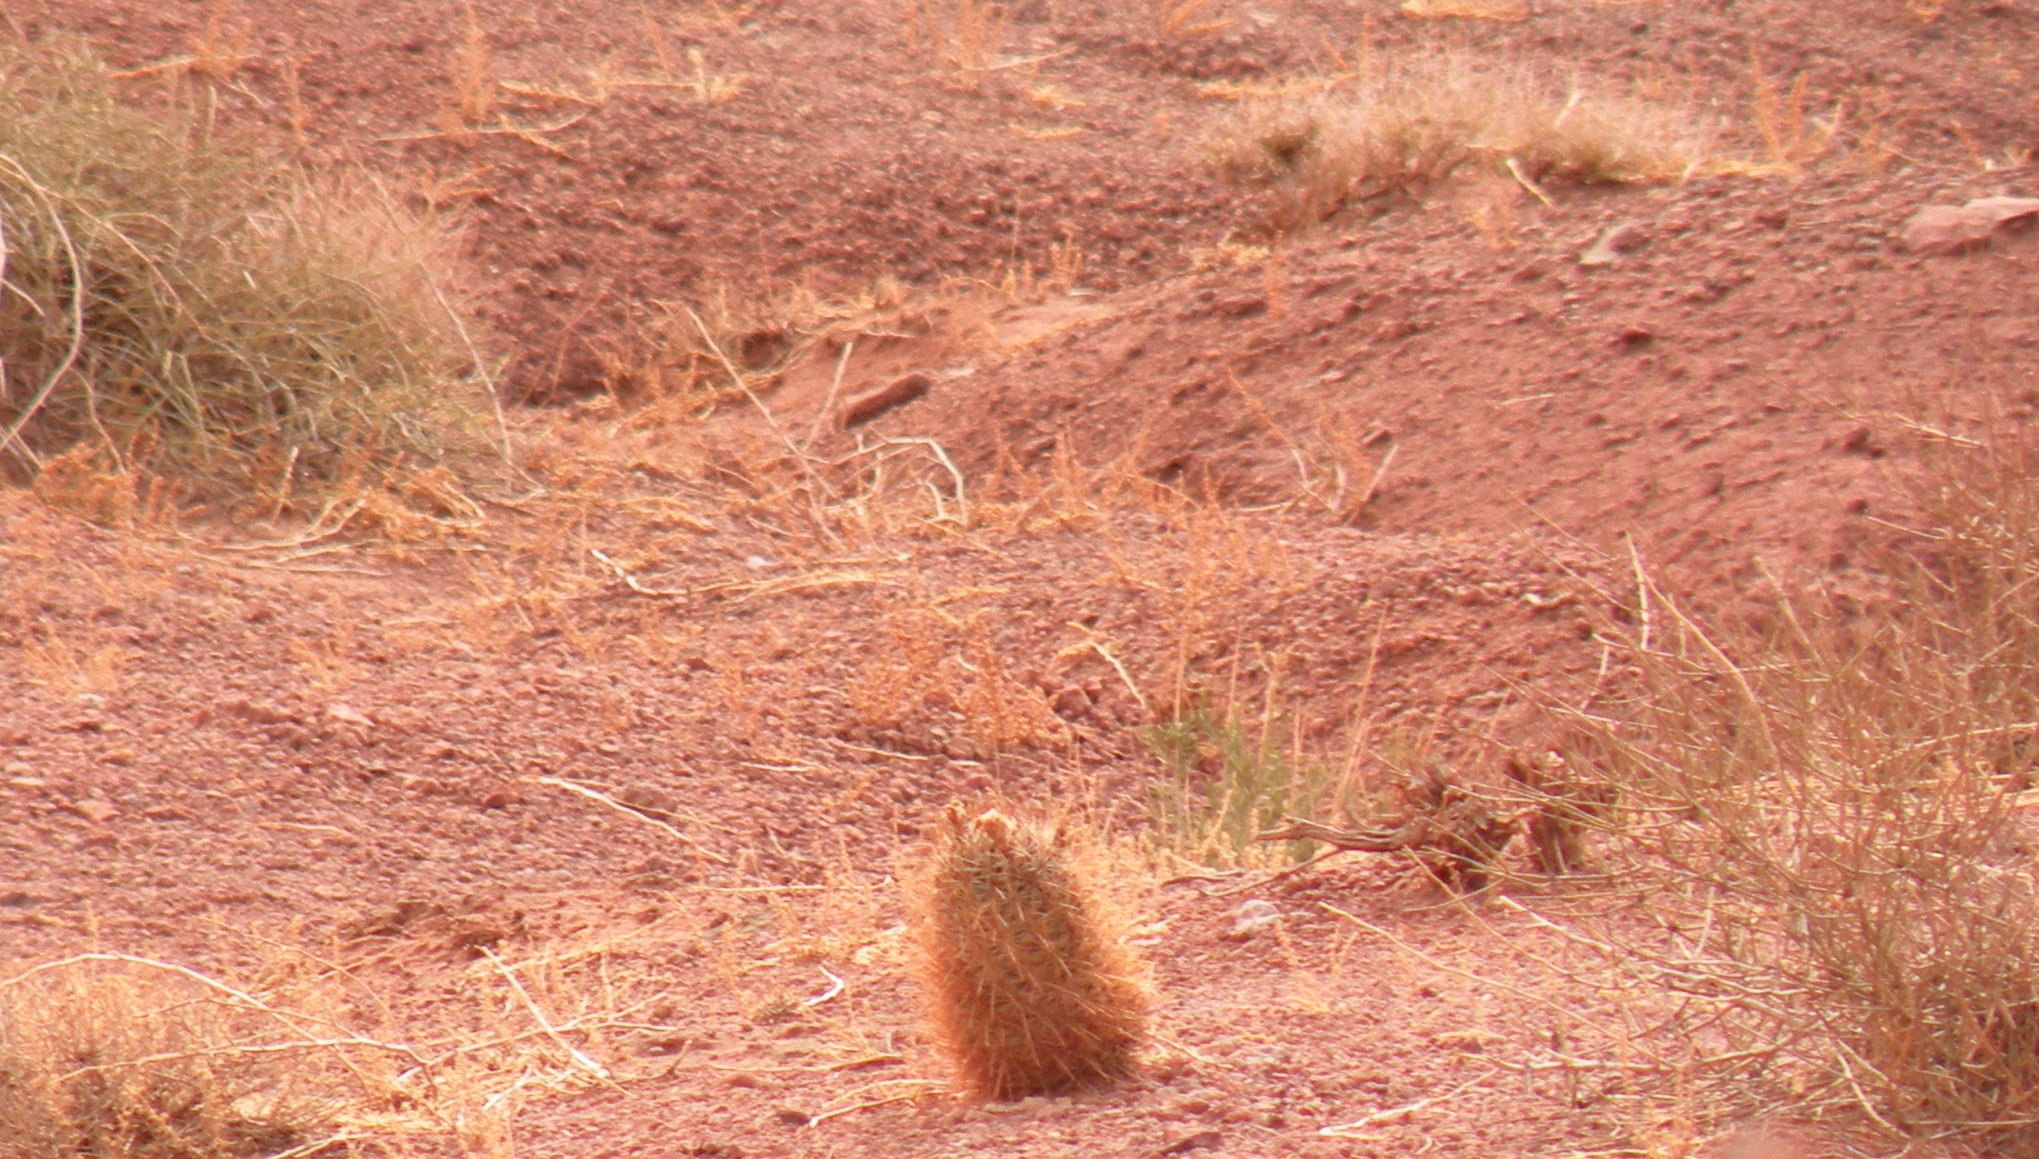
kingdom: Plantae
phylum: Tracheophyta
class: Magnoliopsida
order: Caryophyllales
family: Cactaceae
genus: Sclerocactus
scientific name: Sclerocactus parviflorus
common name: Small-flower fishhook cactus
